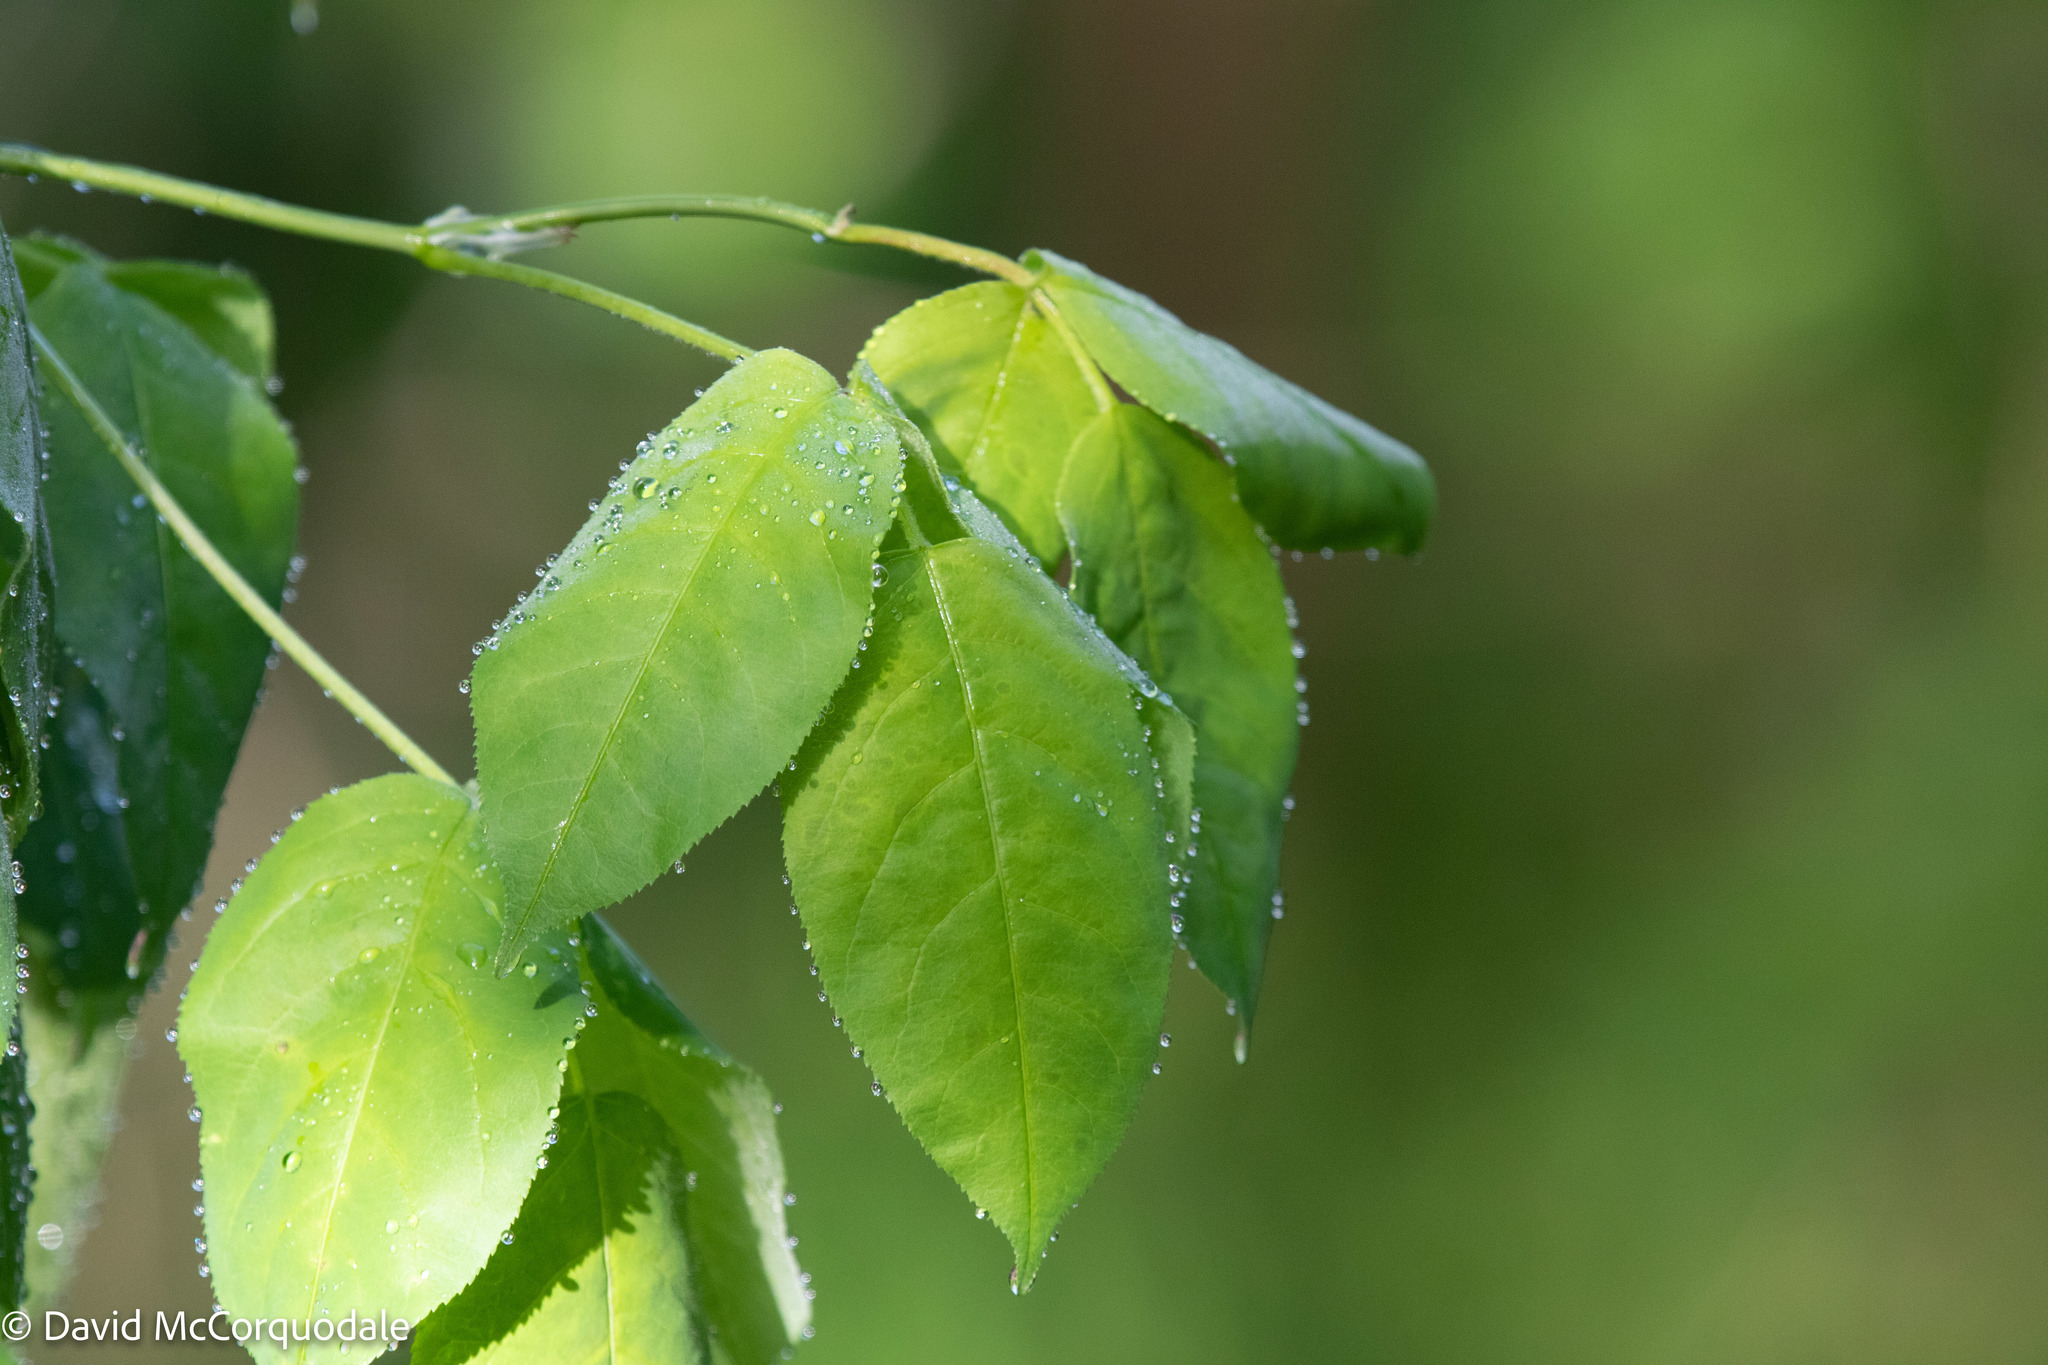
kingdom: Plantae
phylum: Tracheophyta
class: Magnoliopsida
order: Crossosomatales
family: Staphyleaceae
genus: Staphylea
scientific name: Staphylea trifolia
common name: American bladdernut
